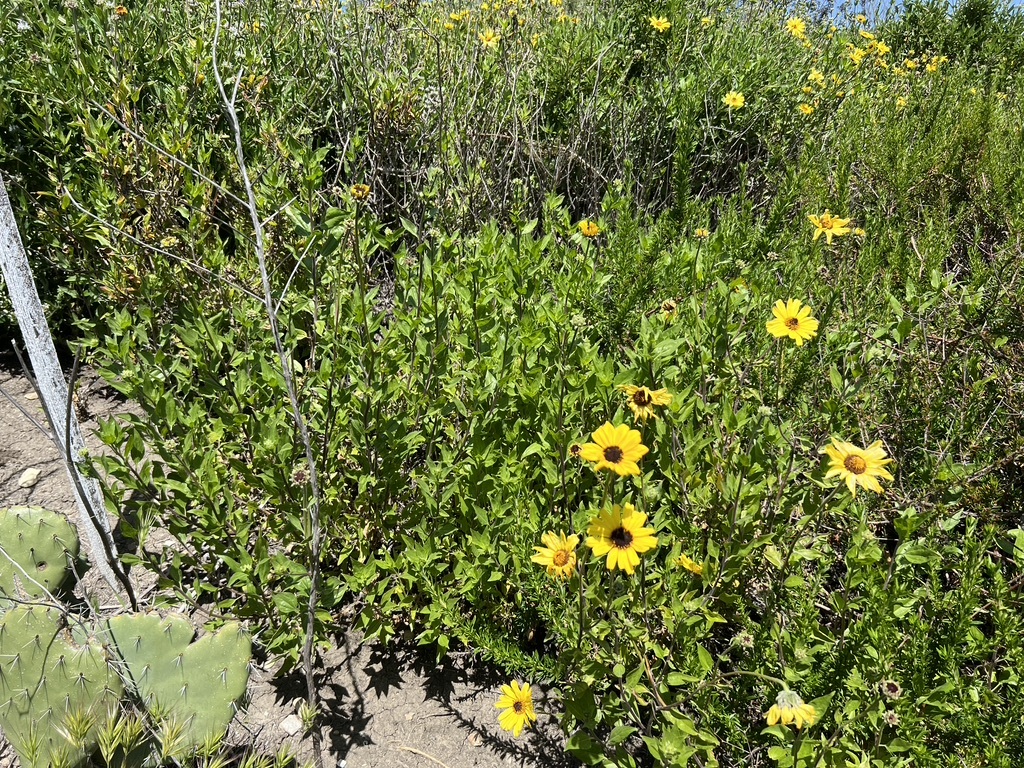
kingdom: Plantae
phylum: Tracheophyta
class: Magnoliopsida
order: Asterales
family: Asteraceae
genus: Encelia
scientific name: Encelia californica
